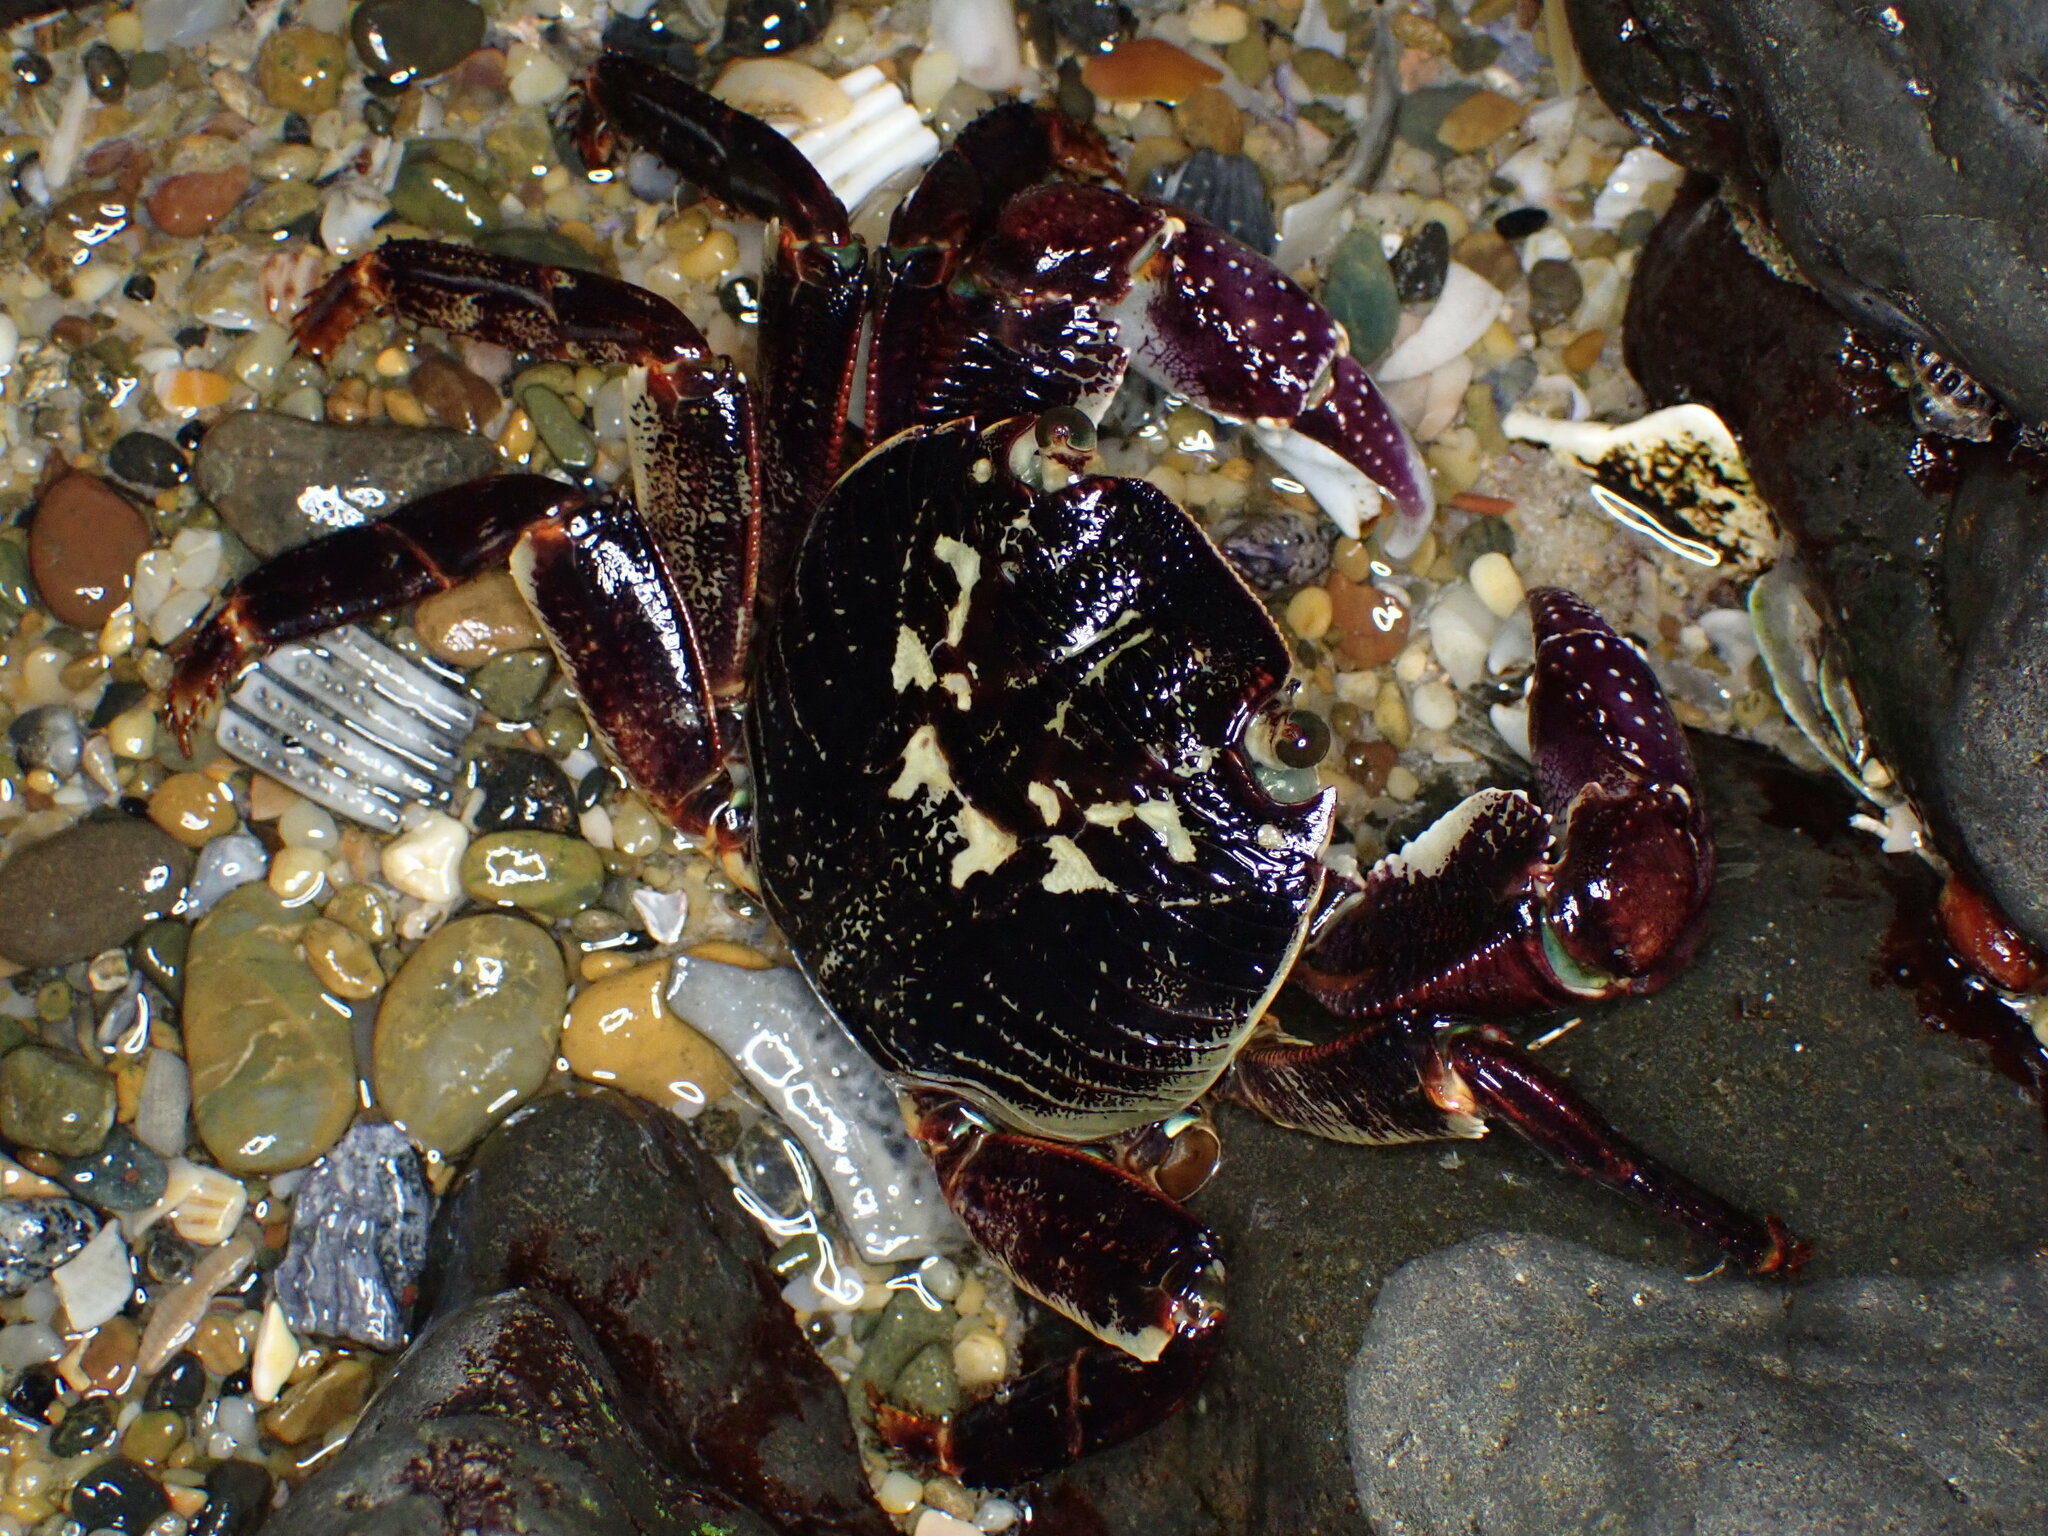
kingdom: Animalia
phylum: Arthropoda
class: Malacostraca
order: Decapoda
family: Grapsidae
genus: Leptograpsus
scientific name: Leptograpsus variegatus
